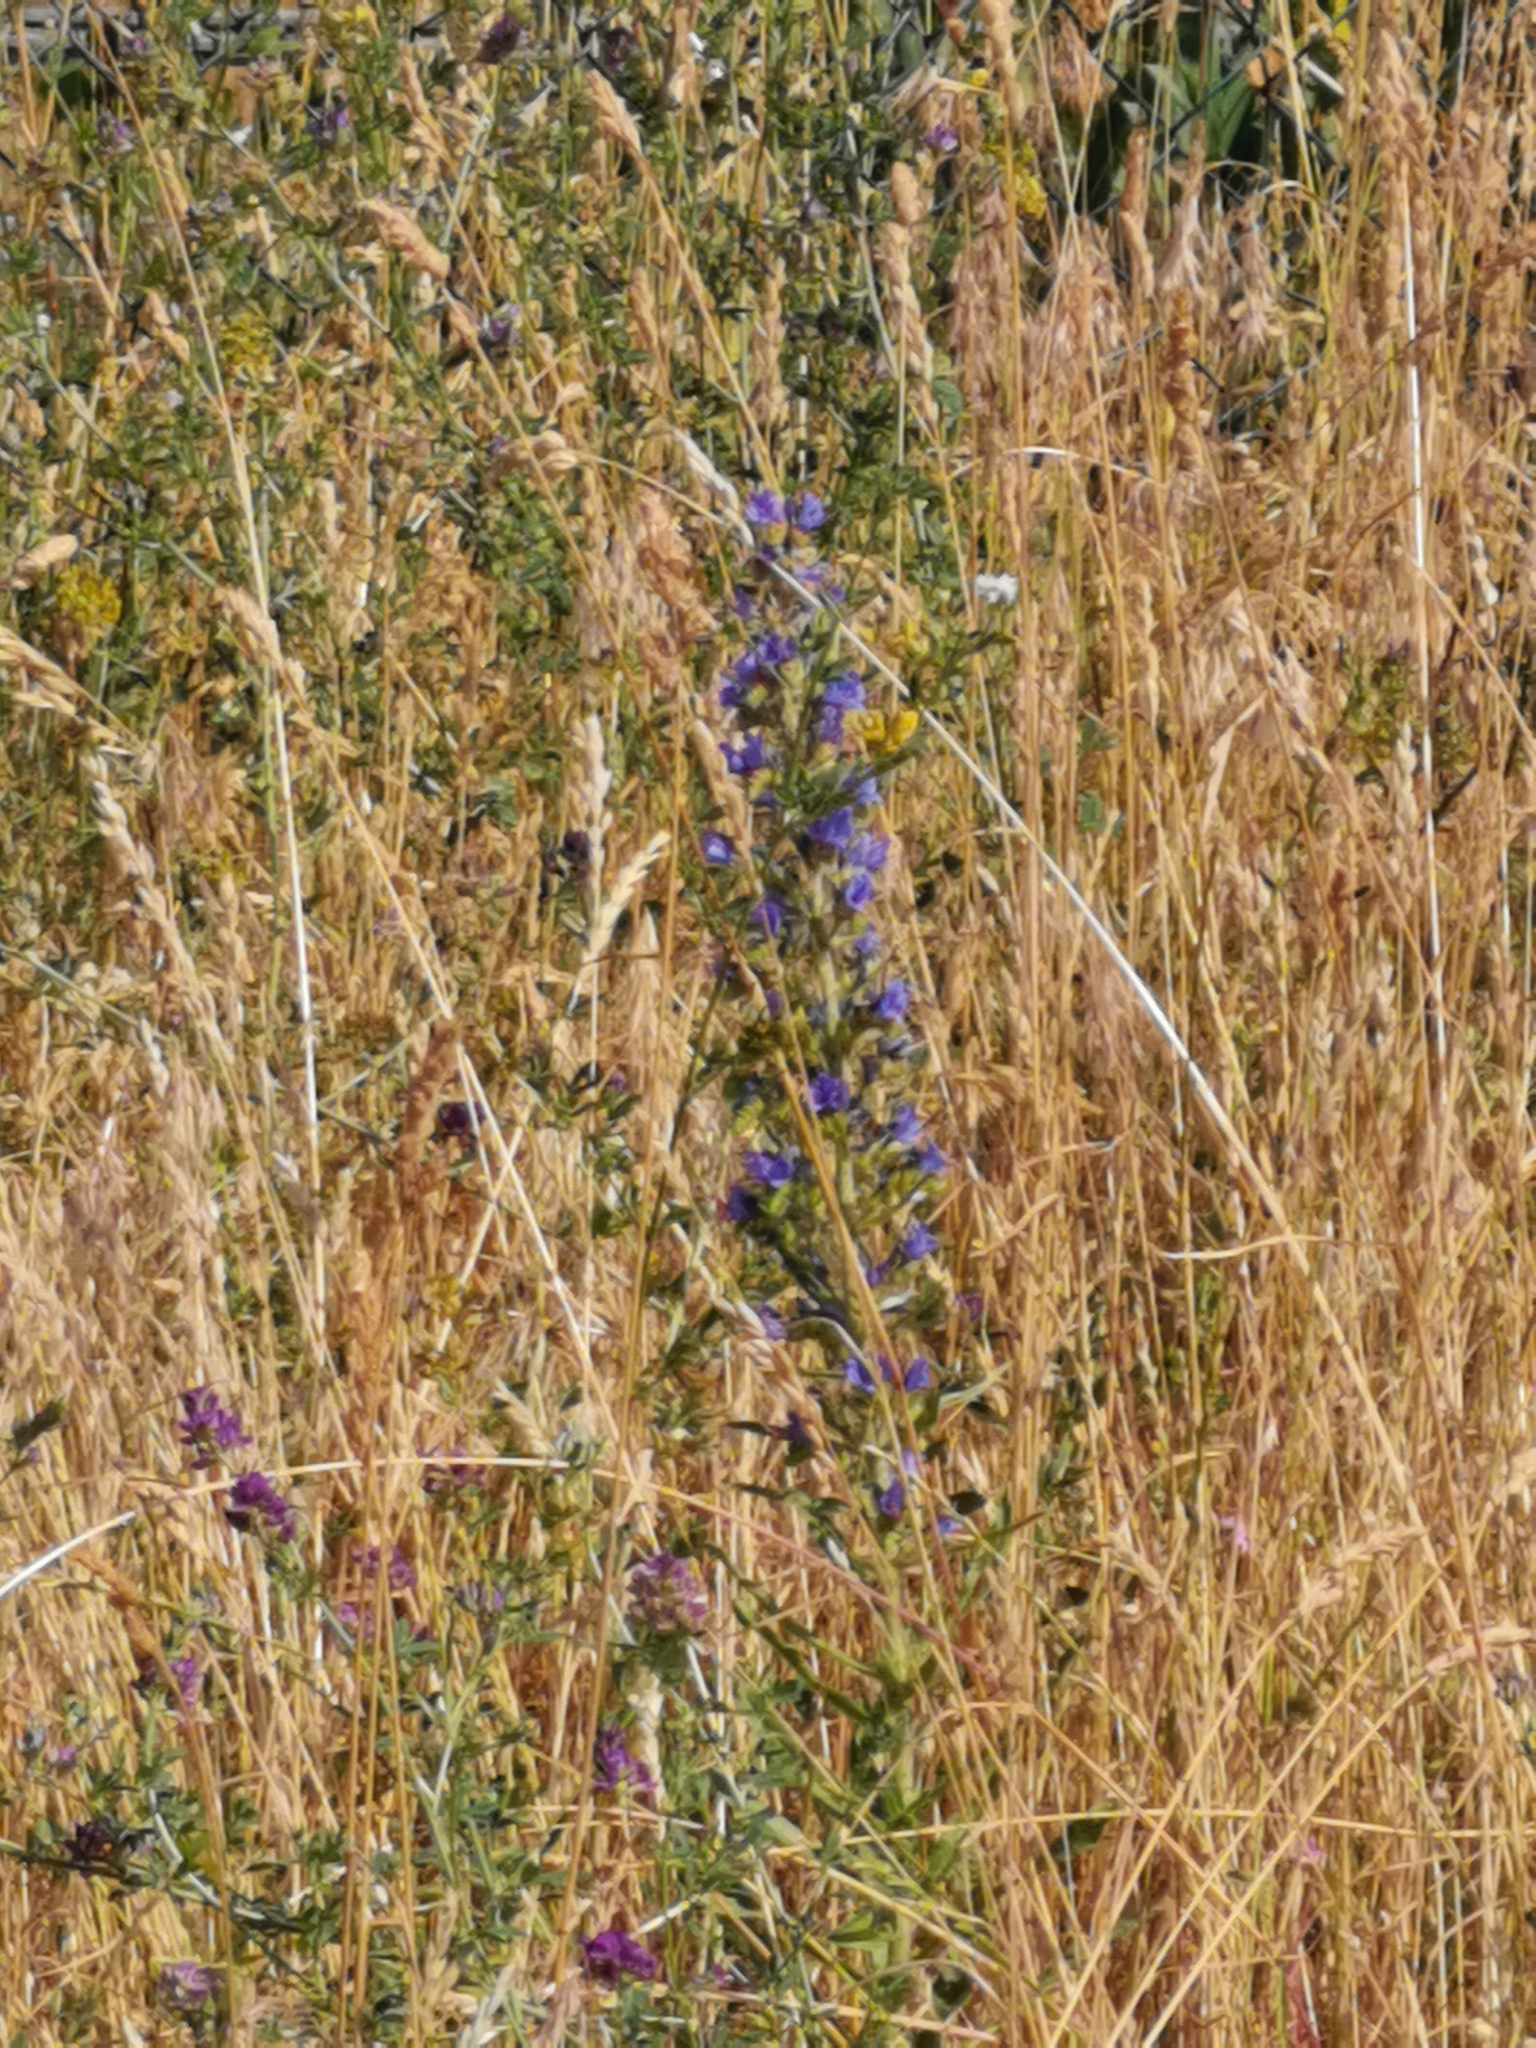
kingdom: Plantae
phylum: Tracheophyta
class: Magnoliopsida
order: Boraginales
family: Boraginaceae
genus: Echium
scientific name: Echium vulgare
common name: Common viper's bugloss
